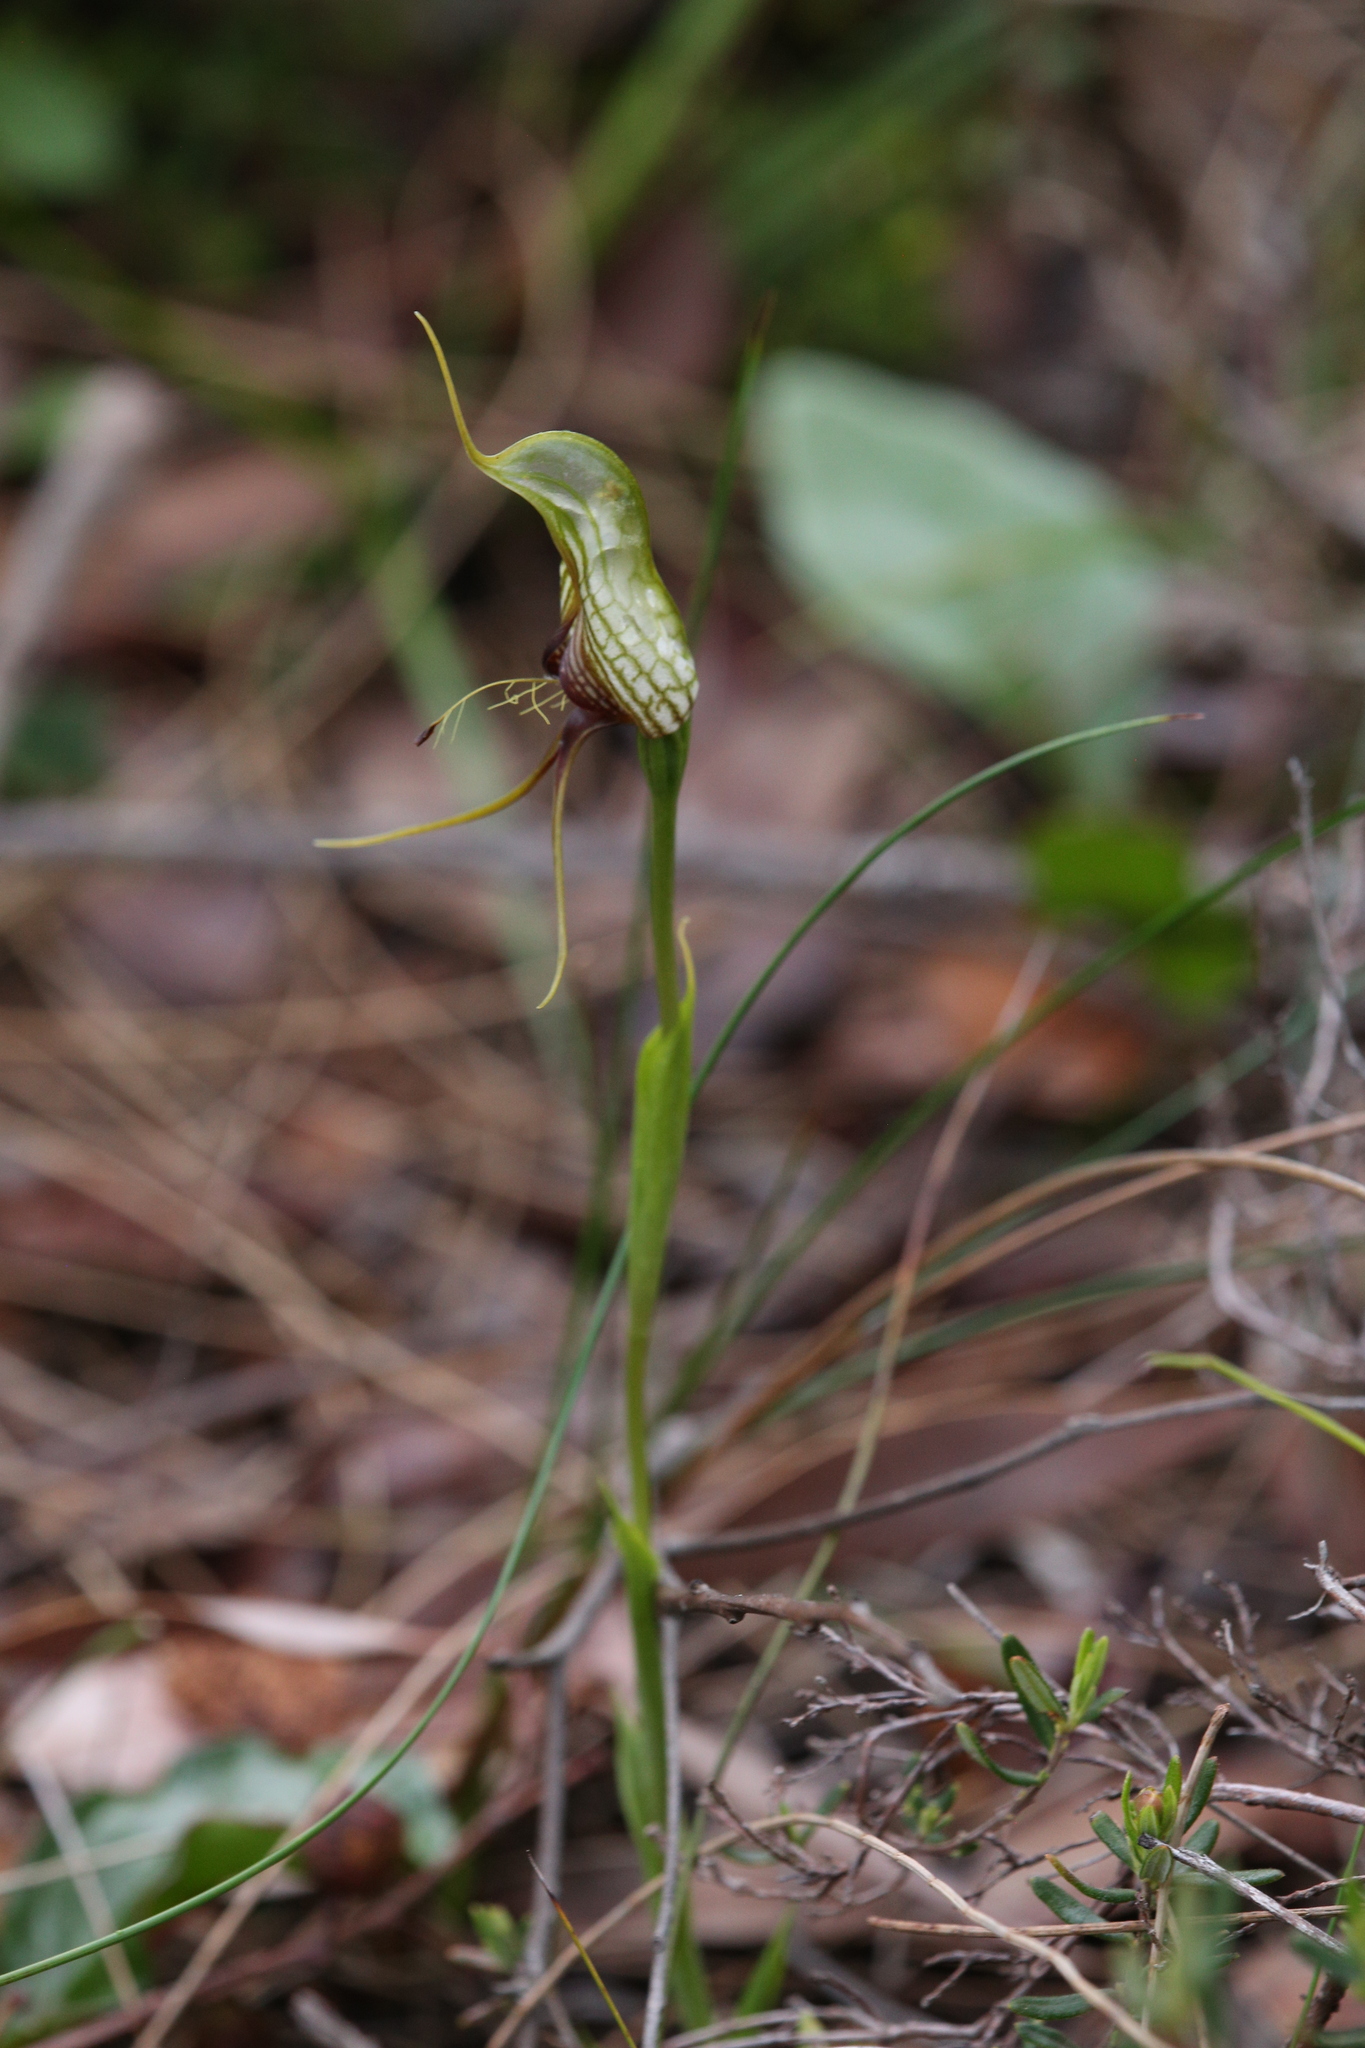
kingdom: Plantae
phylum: Tracheophyta
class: Liliopsida
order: Asparagales
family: Orchidaceae
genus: Pterostylis
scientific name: Pterostylis barbata
